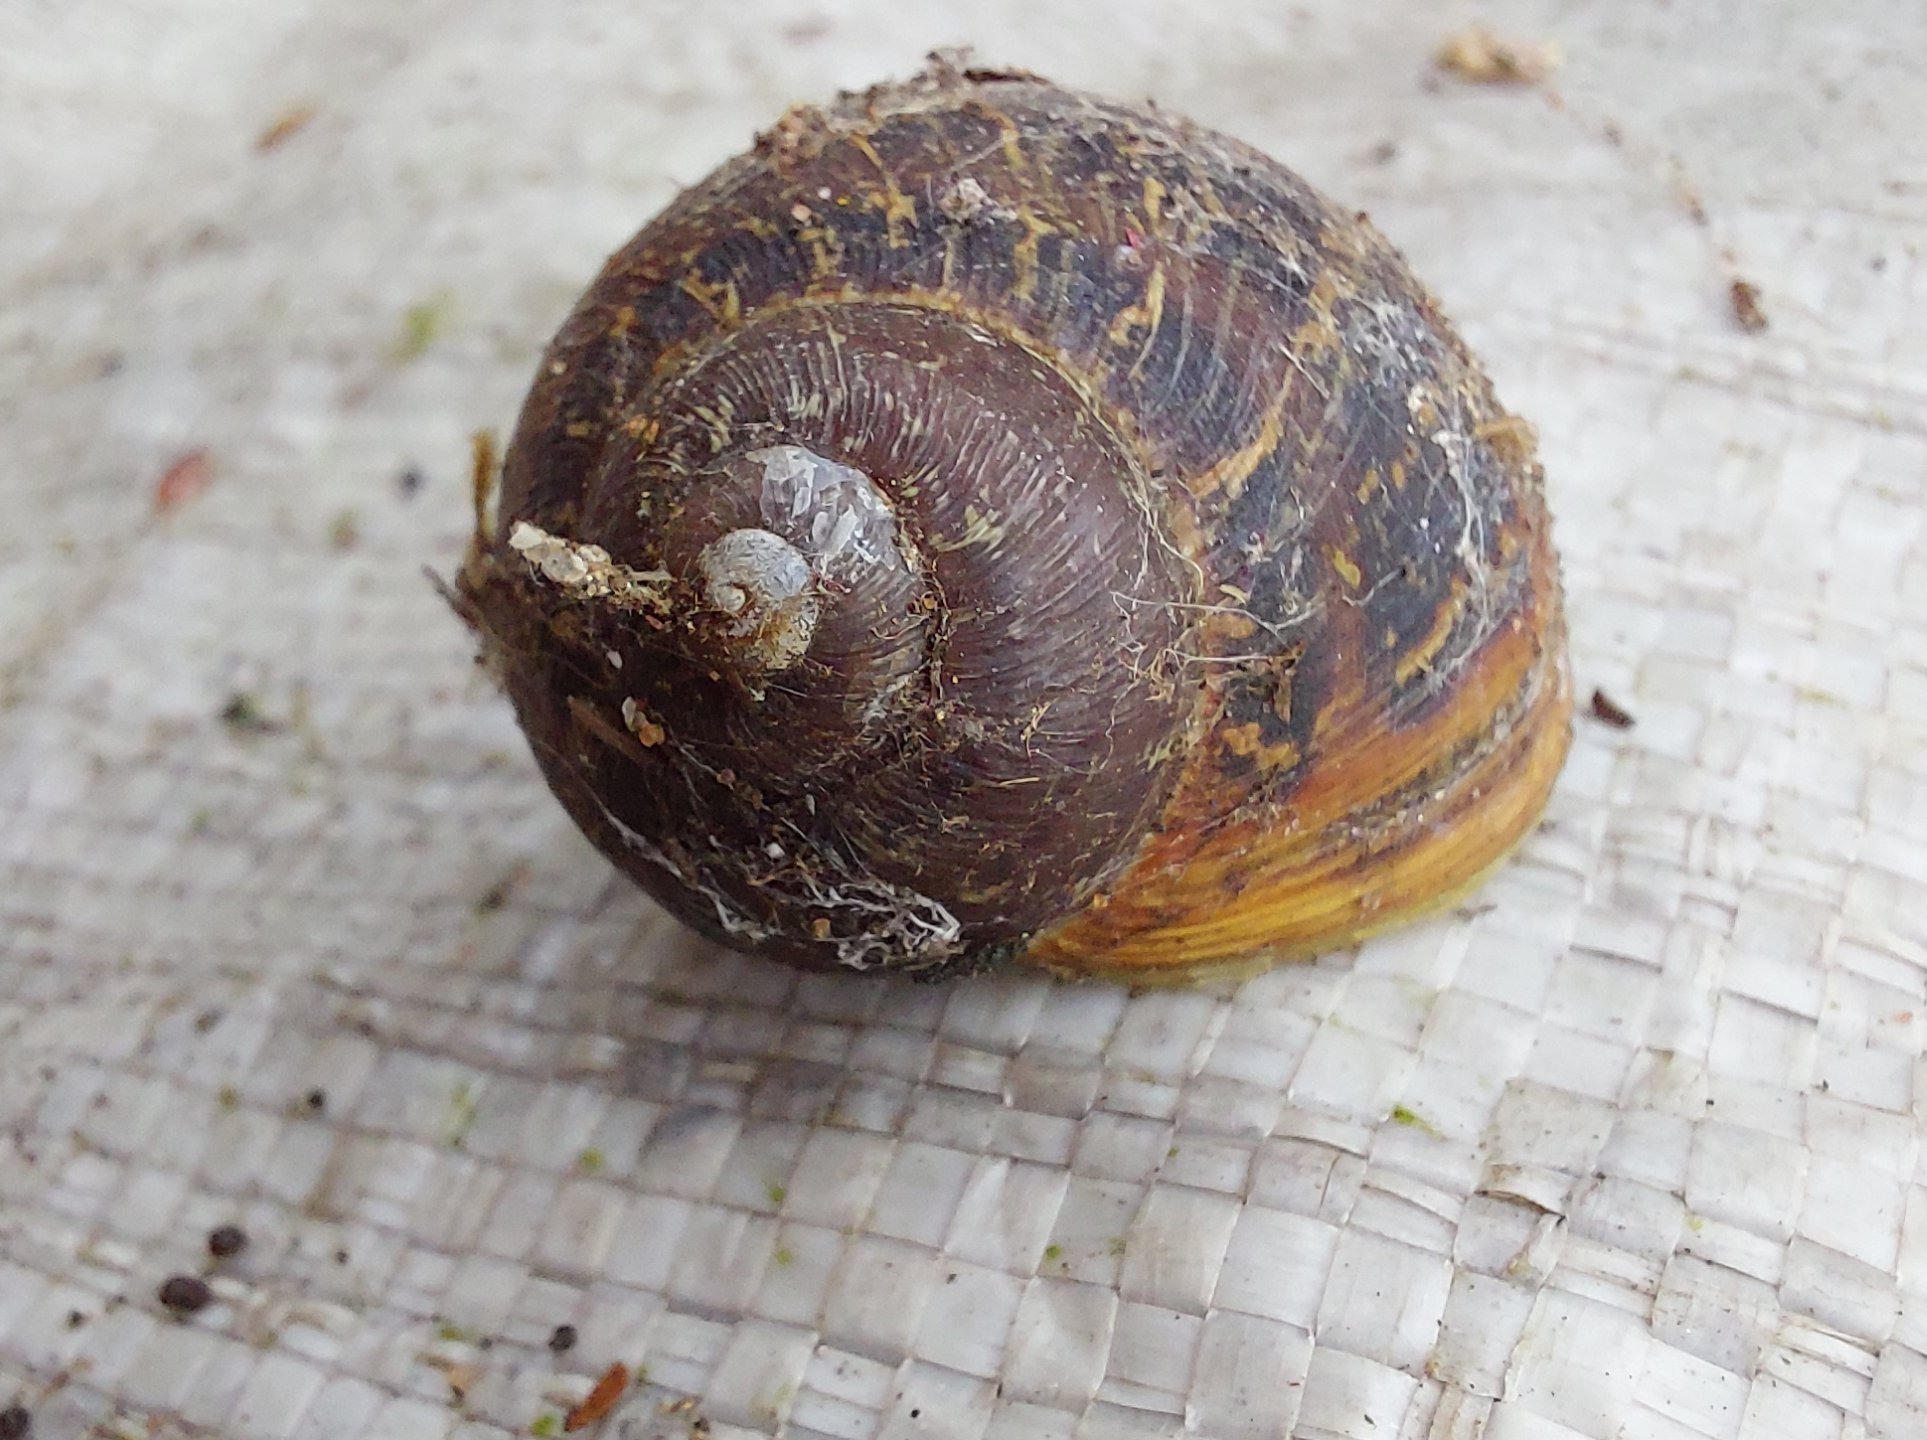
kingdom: Animalia
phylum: Mollusca
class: Gastropoda
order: Stylommatophora
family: Helicidae
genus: Cornu
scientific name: Cornu aspersum
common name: Brown garden snail
